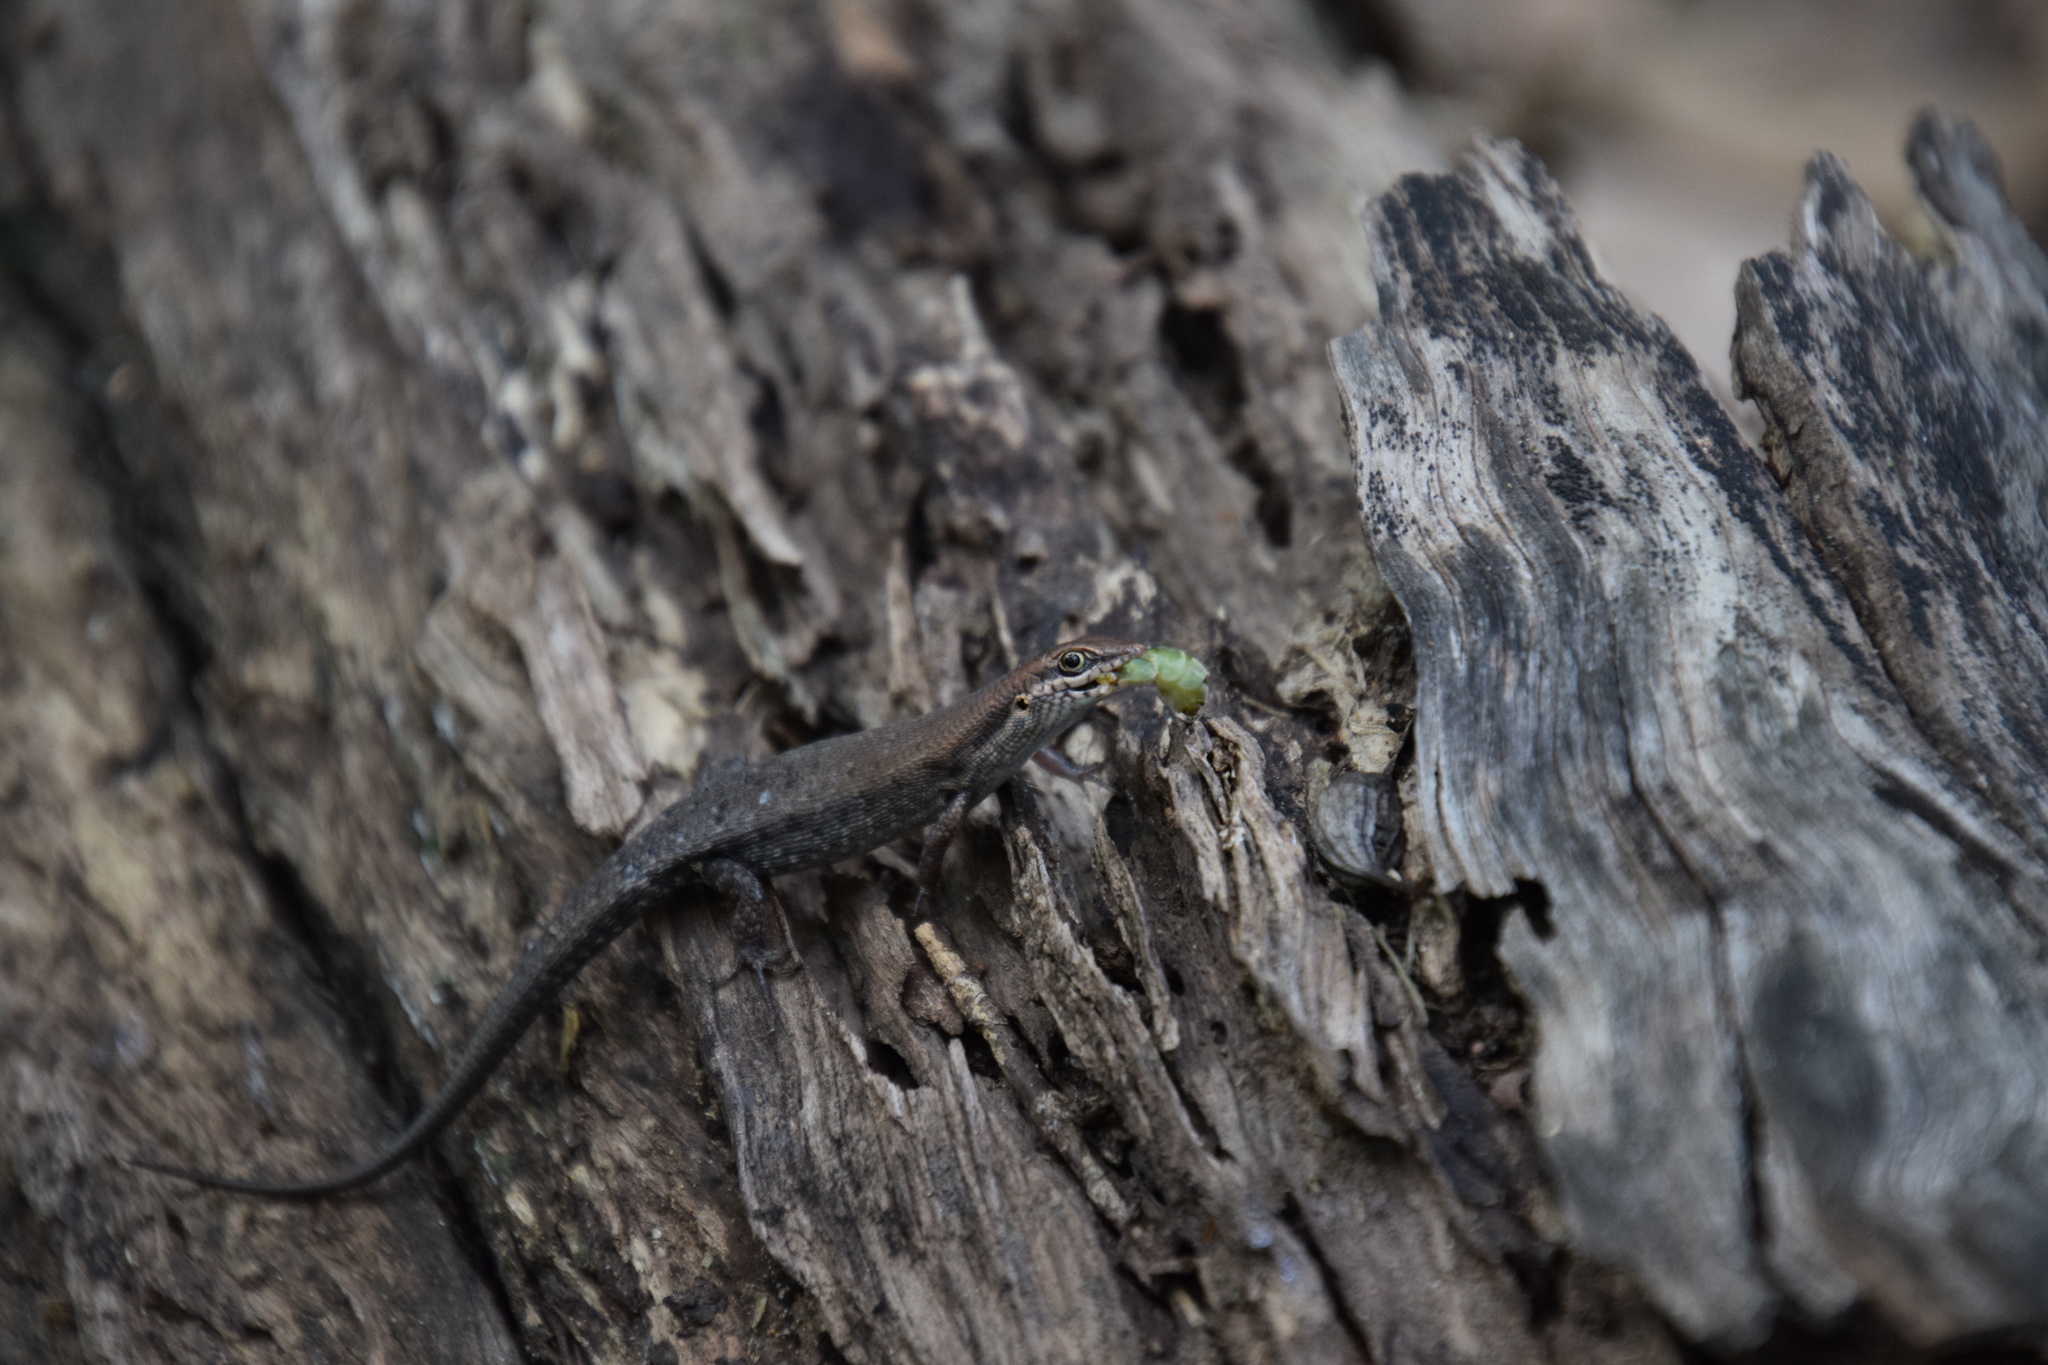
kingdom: Animalia
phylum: Chordata
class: Squamata
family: Scincidae
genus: Carlia
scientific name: Carlia amax
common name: Bauxite rainbow-skink
